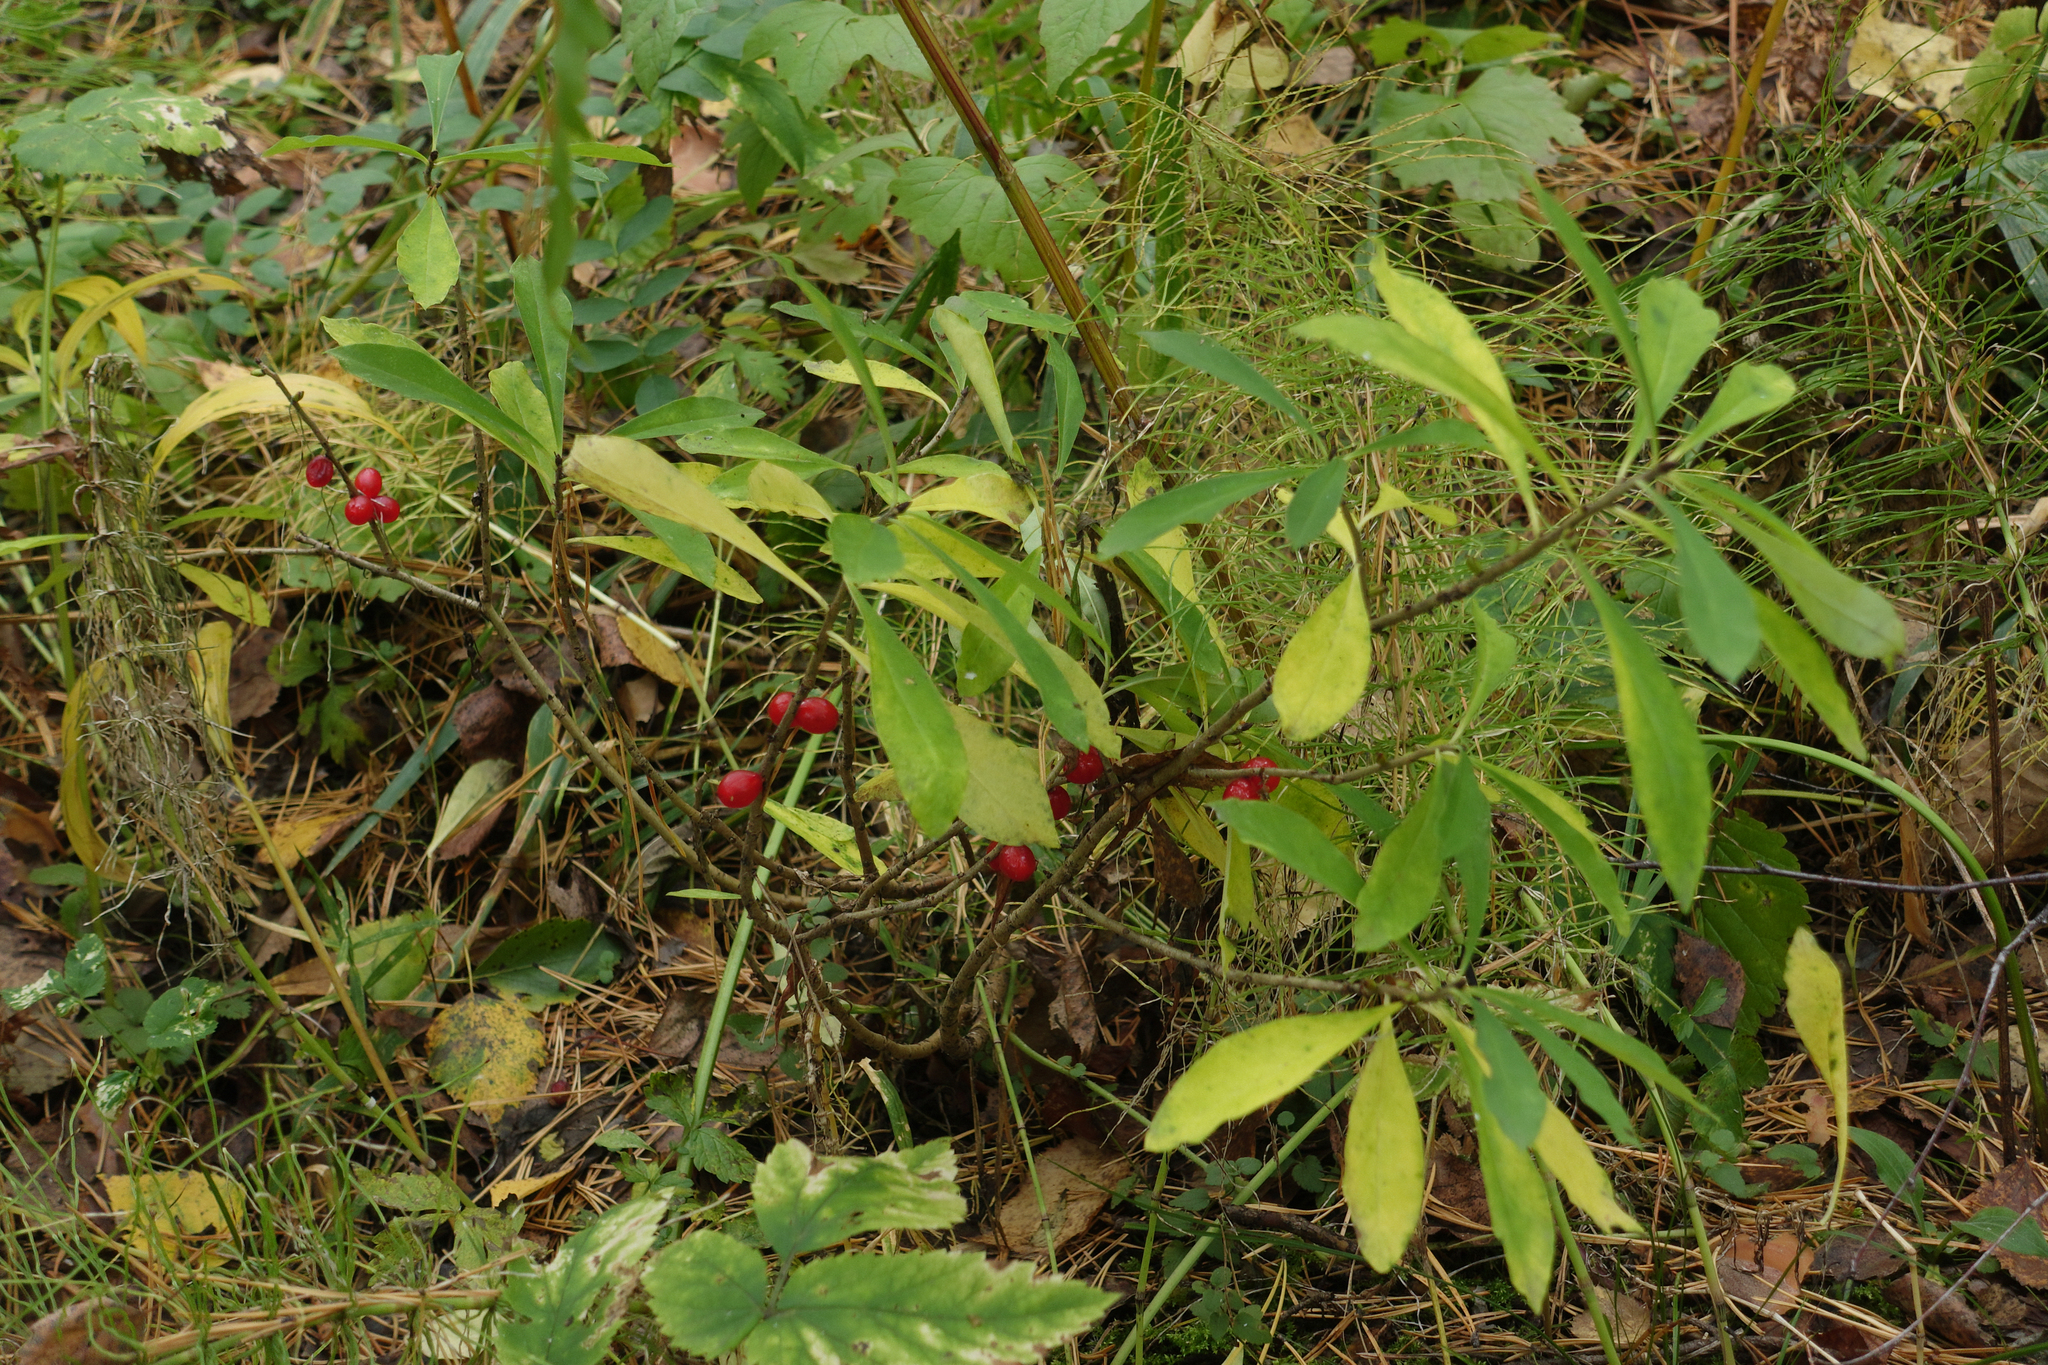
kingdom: Plantae
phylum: Tracheophyta
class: Magnoliopsida
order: Malvales
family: Thymelaeaceae
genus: Daphne
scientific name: Daphne mezereum
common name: Mezereon
